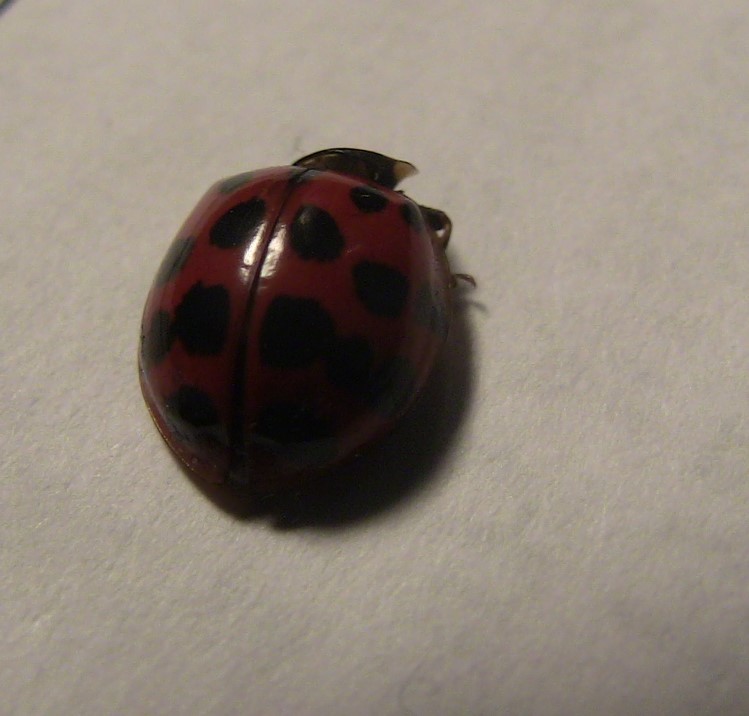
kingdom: Animalia
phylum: Arthropoda
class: Insecta
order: Coleoptera
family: Coccinellidae
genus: Harmonia
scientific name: Harmonia axyridis
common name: Harlequin ladybird
